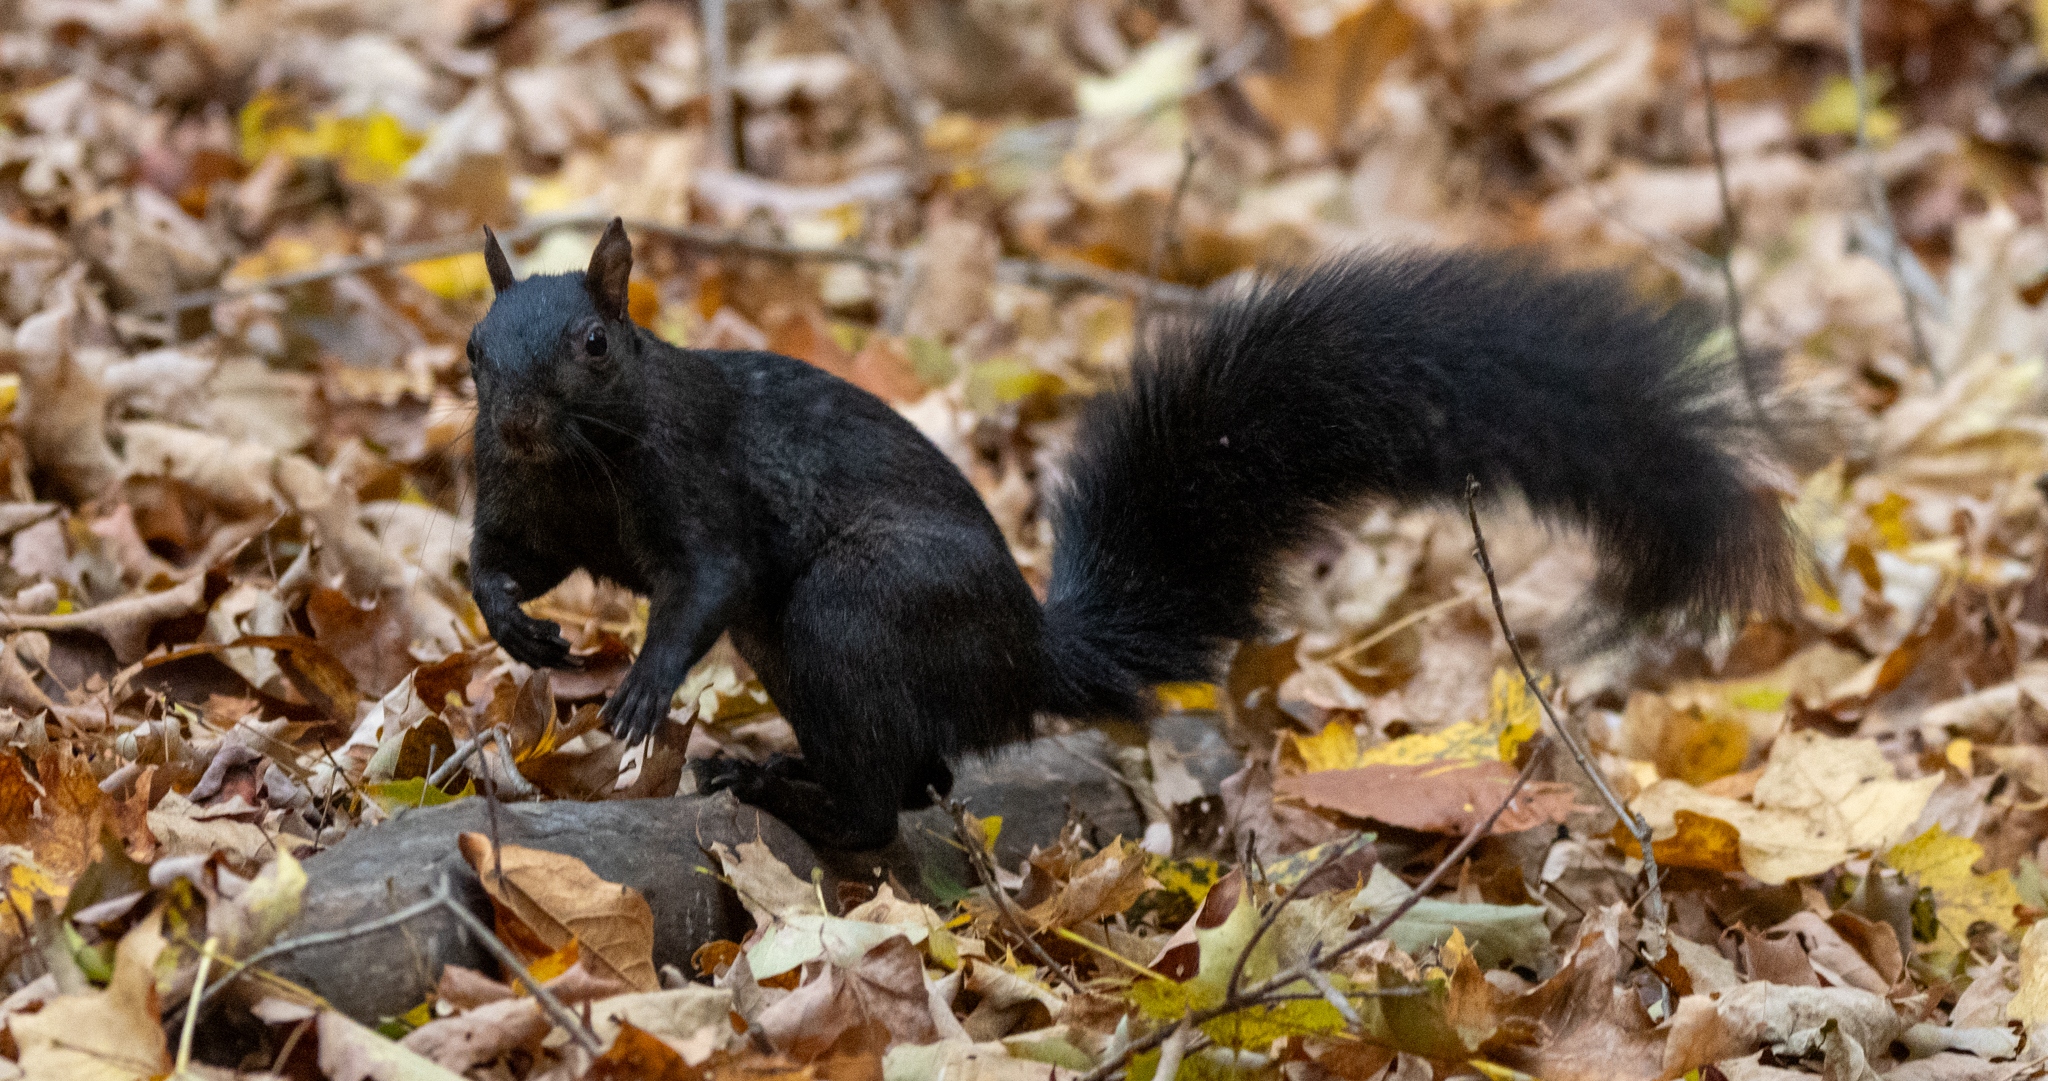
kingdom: Animalia
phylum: Chordata
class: Mammalia
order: Rodentia
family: Sciuridae
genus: Sciurus
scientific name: Sciurus carolinensis
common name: Eastern gray squirrel
